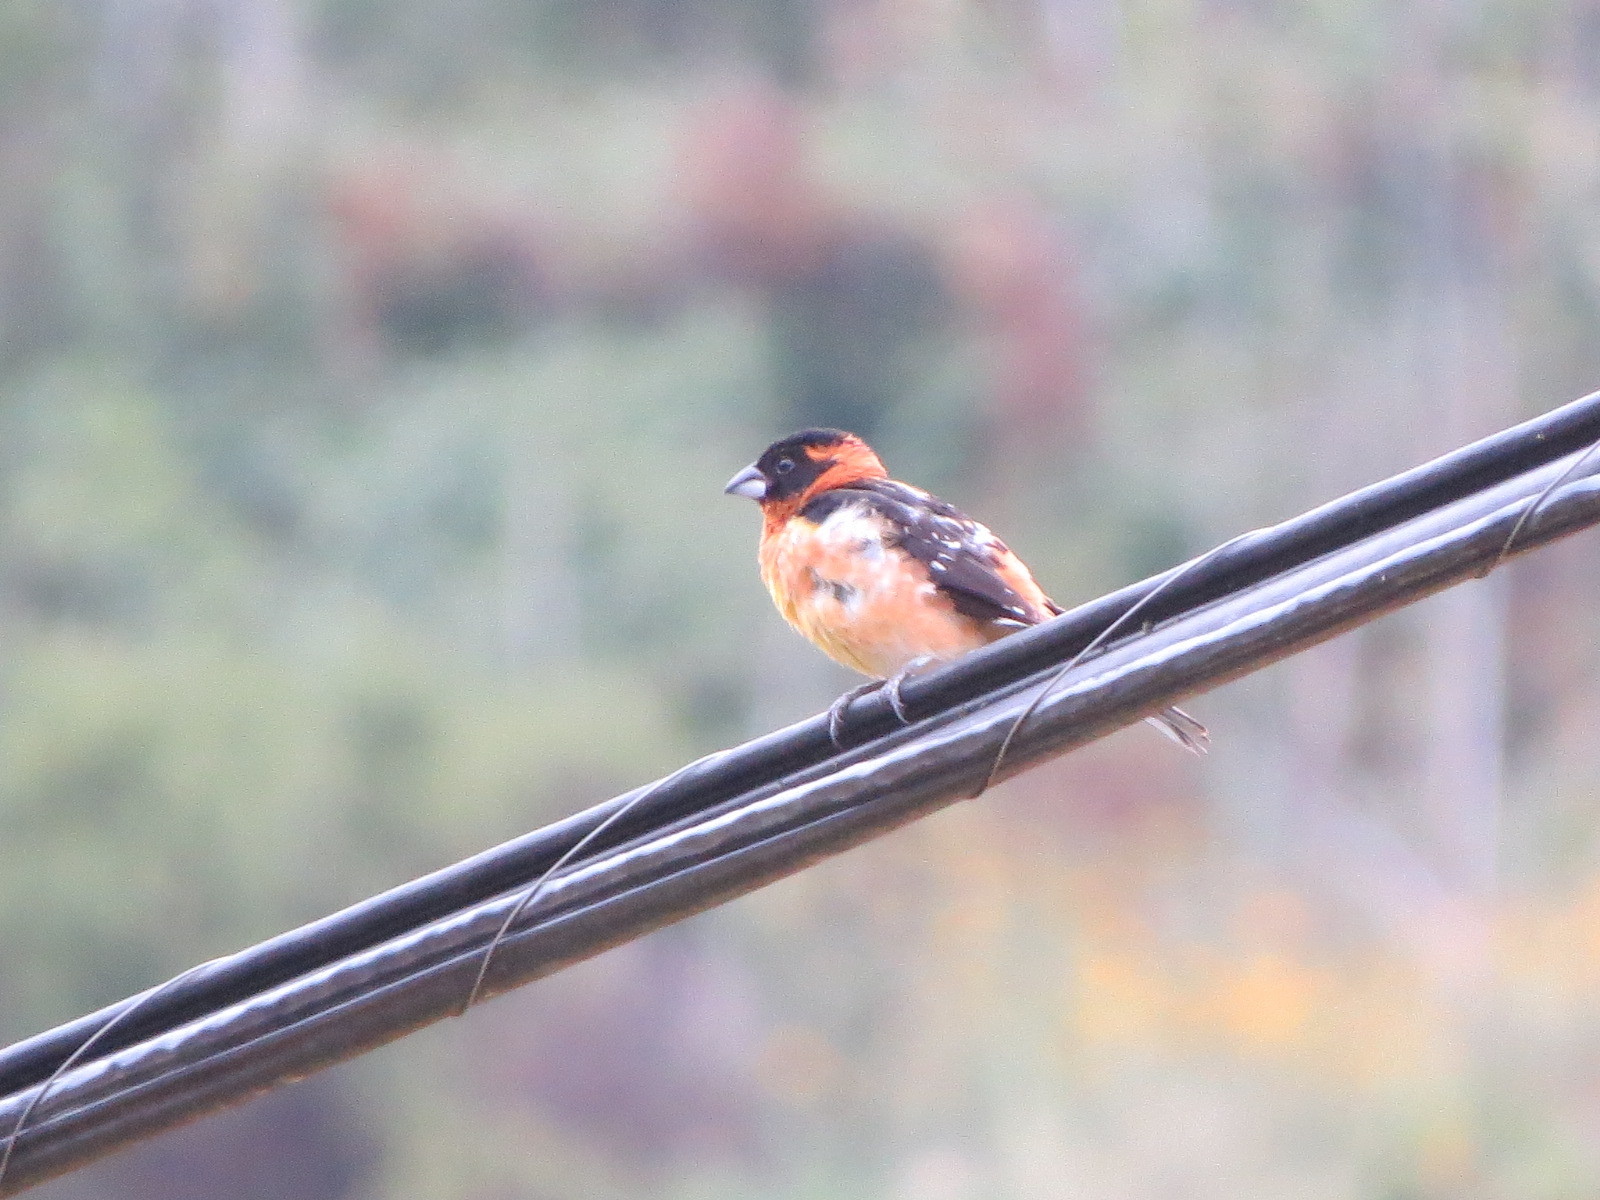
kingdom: Animalia
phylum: Chordata
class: Aves
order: Passeriformes
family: Cardinalidae
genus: Pheucticus
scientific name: Pheucticus melanocephalus
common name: Black-headed grosbeak
